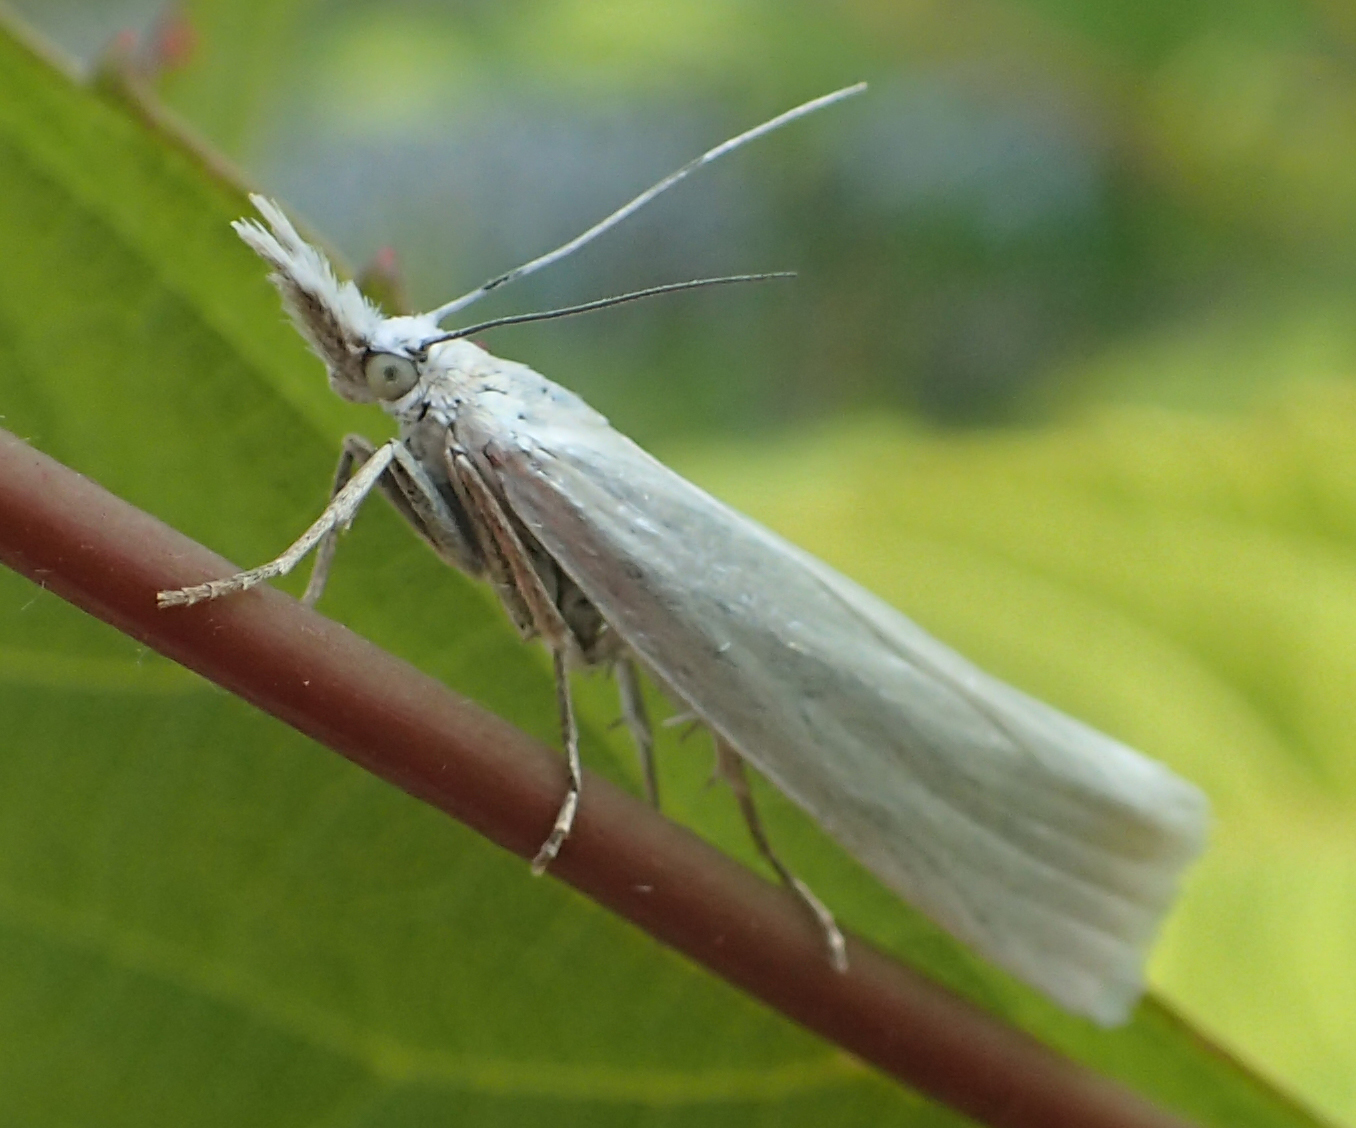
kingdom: Animalia
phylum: Arthropoda
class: Insecta
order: Lepidoptera
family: Crambidae
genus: Crambus
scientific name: Crambus perlellus
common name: Yellow satin veneer
